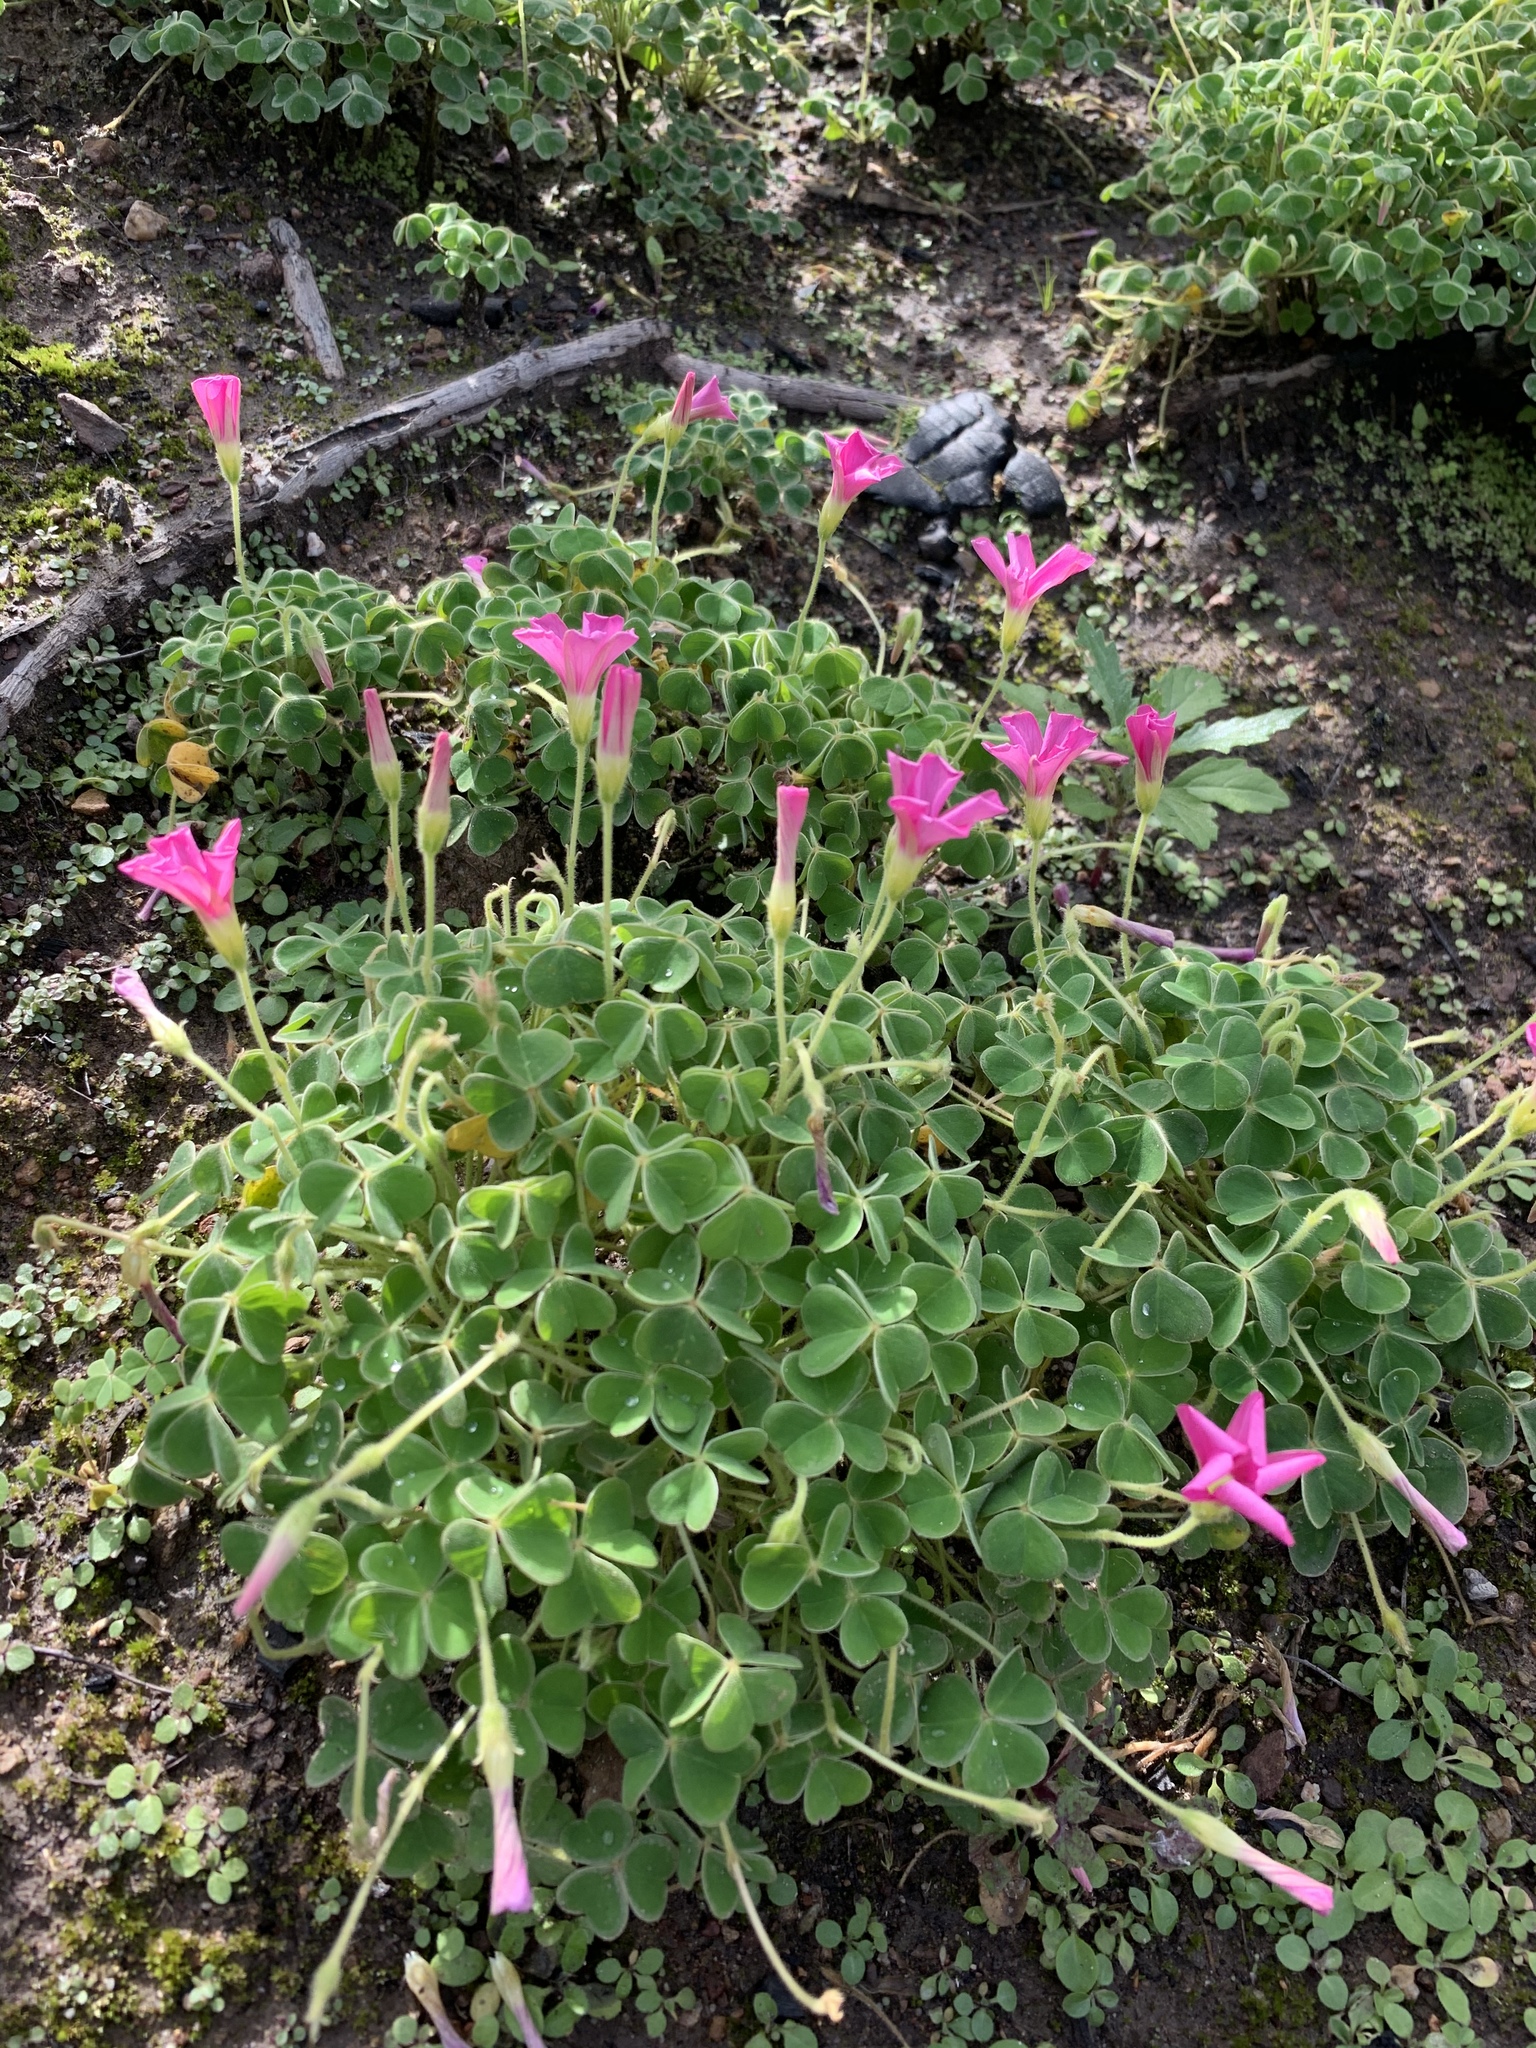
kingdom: Plantae
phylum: Tracheophyta
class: Magnoliopsida
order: Oxalidales
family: Oxalidaceae
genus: Oxalis
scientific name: Oxalis lanata
